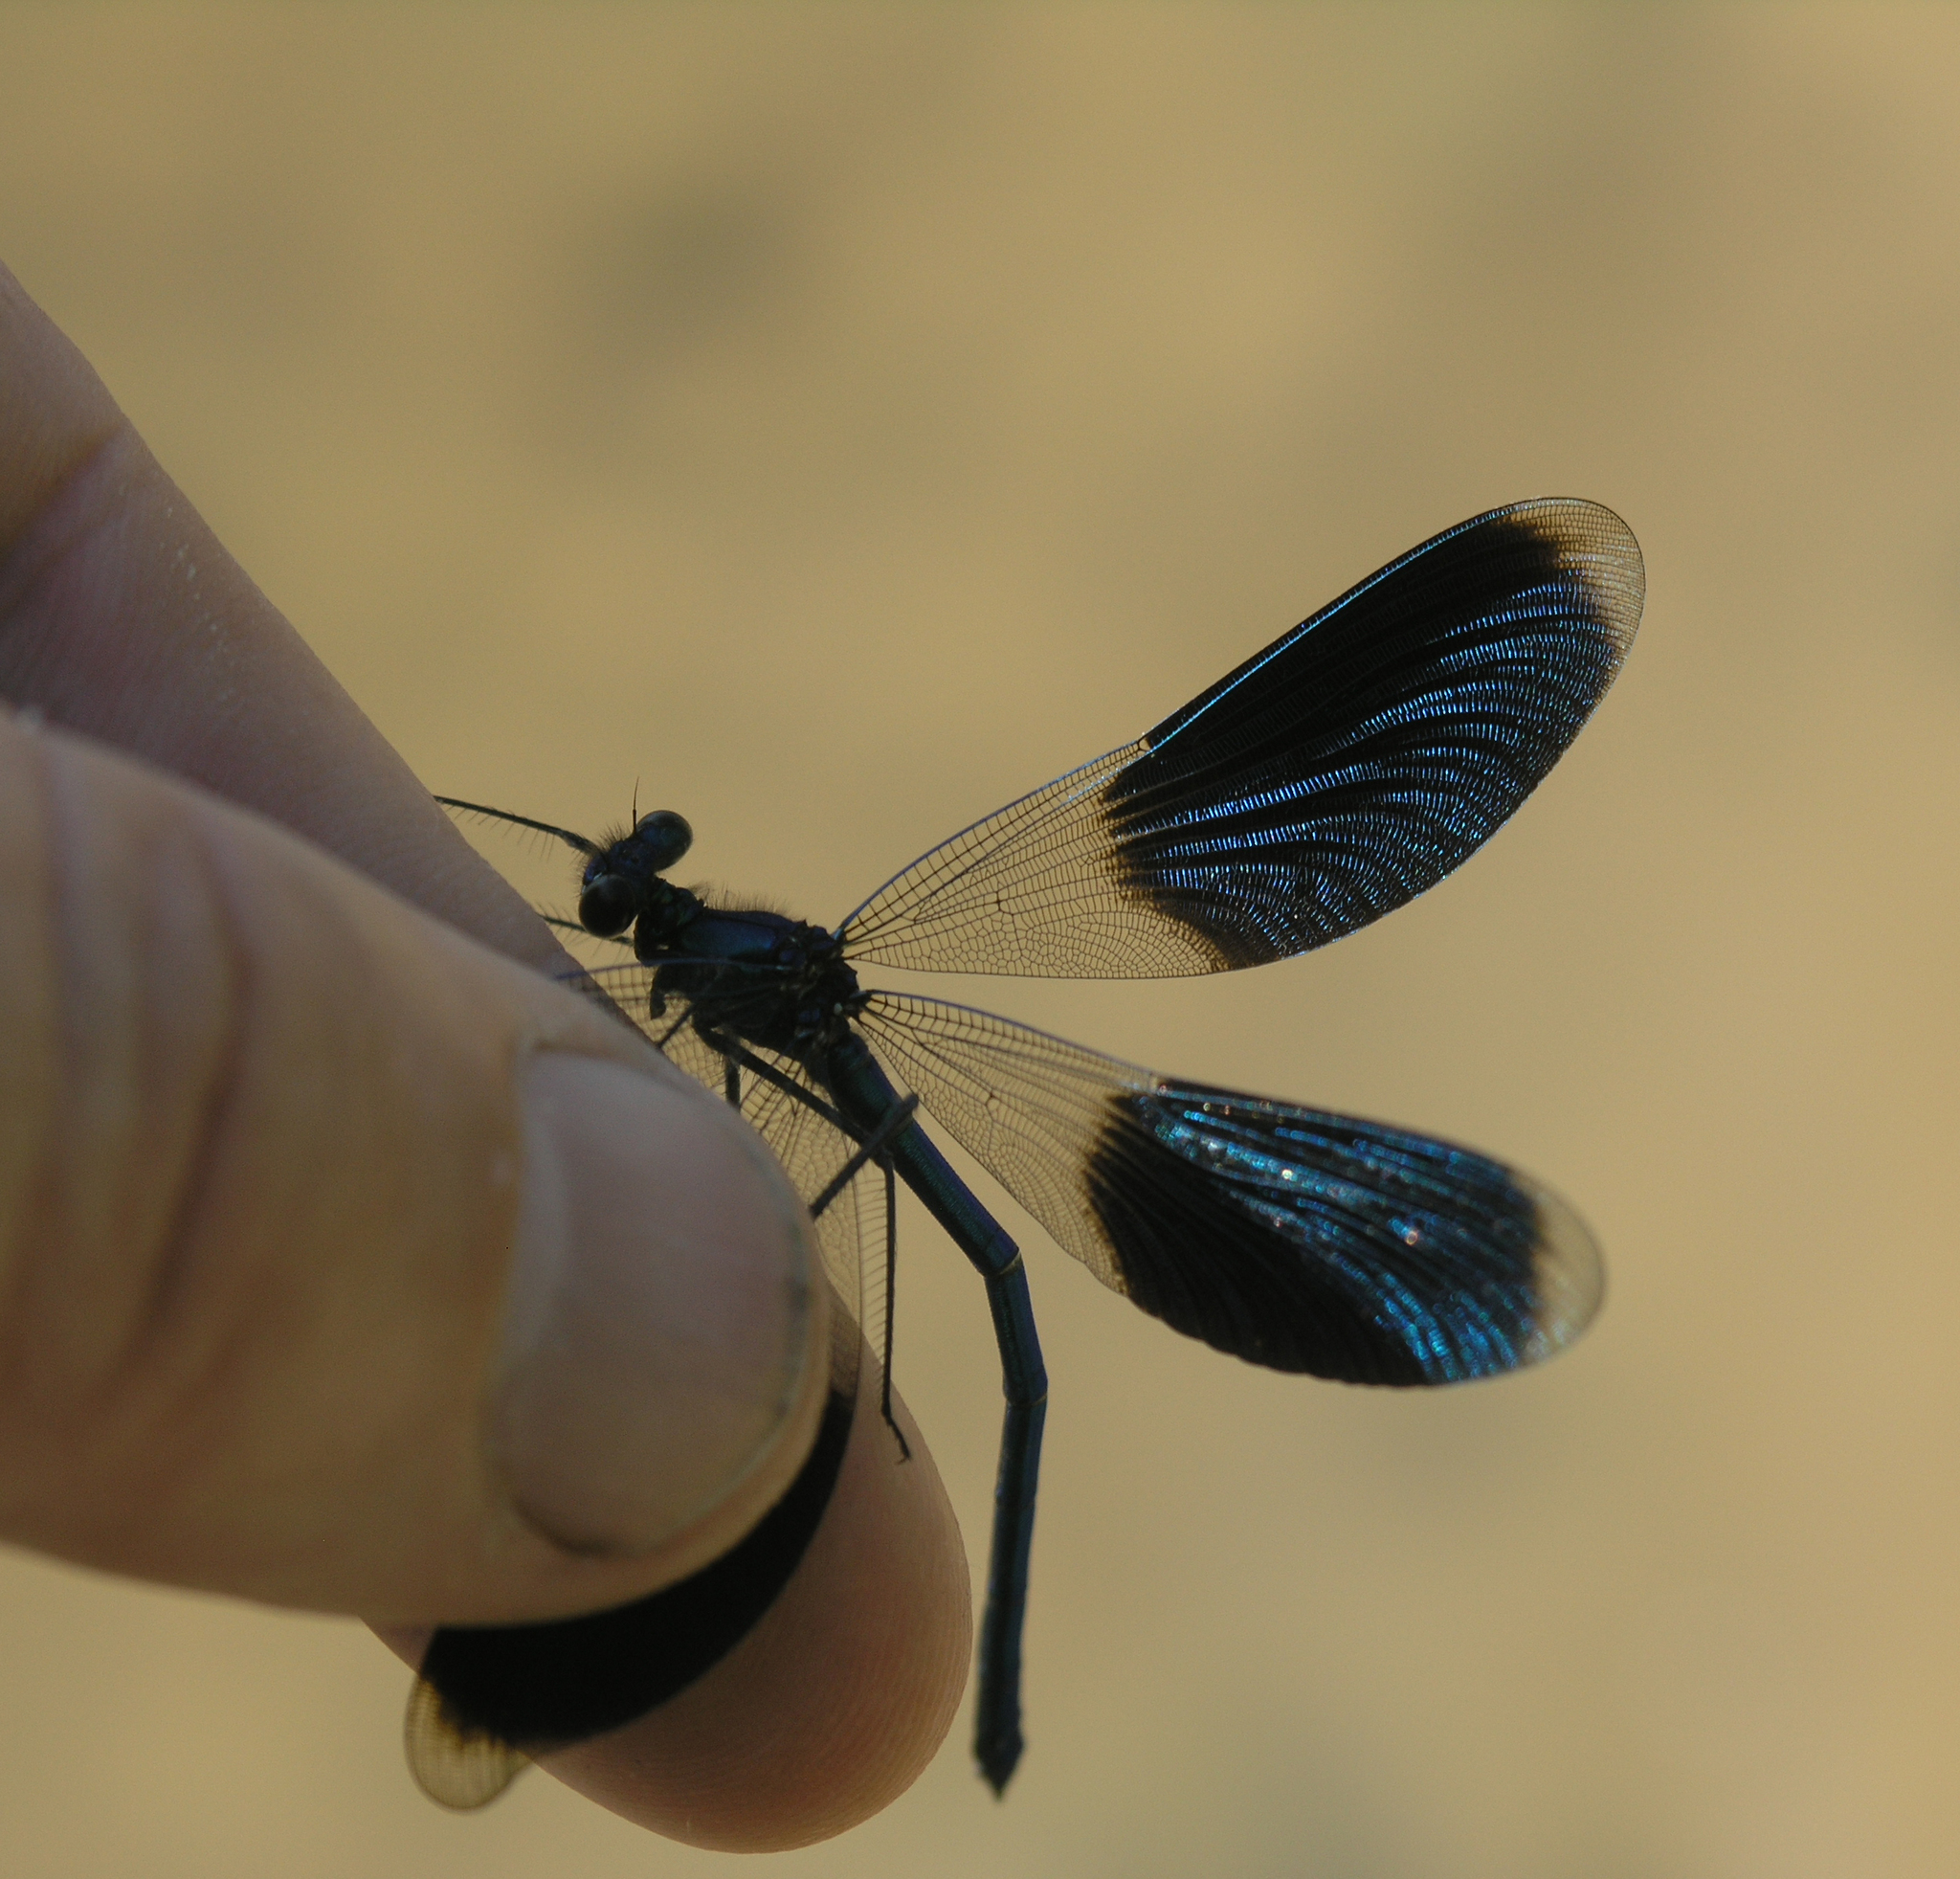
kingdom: Animalia
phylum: Arthropoda
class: Insecta
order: Odonata
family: Calopterygidae
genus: Calopteryx
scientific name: Calopteryx splendens
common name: Banded demoiselle
